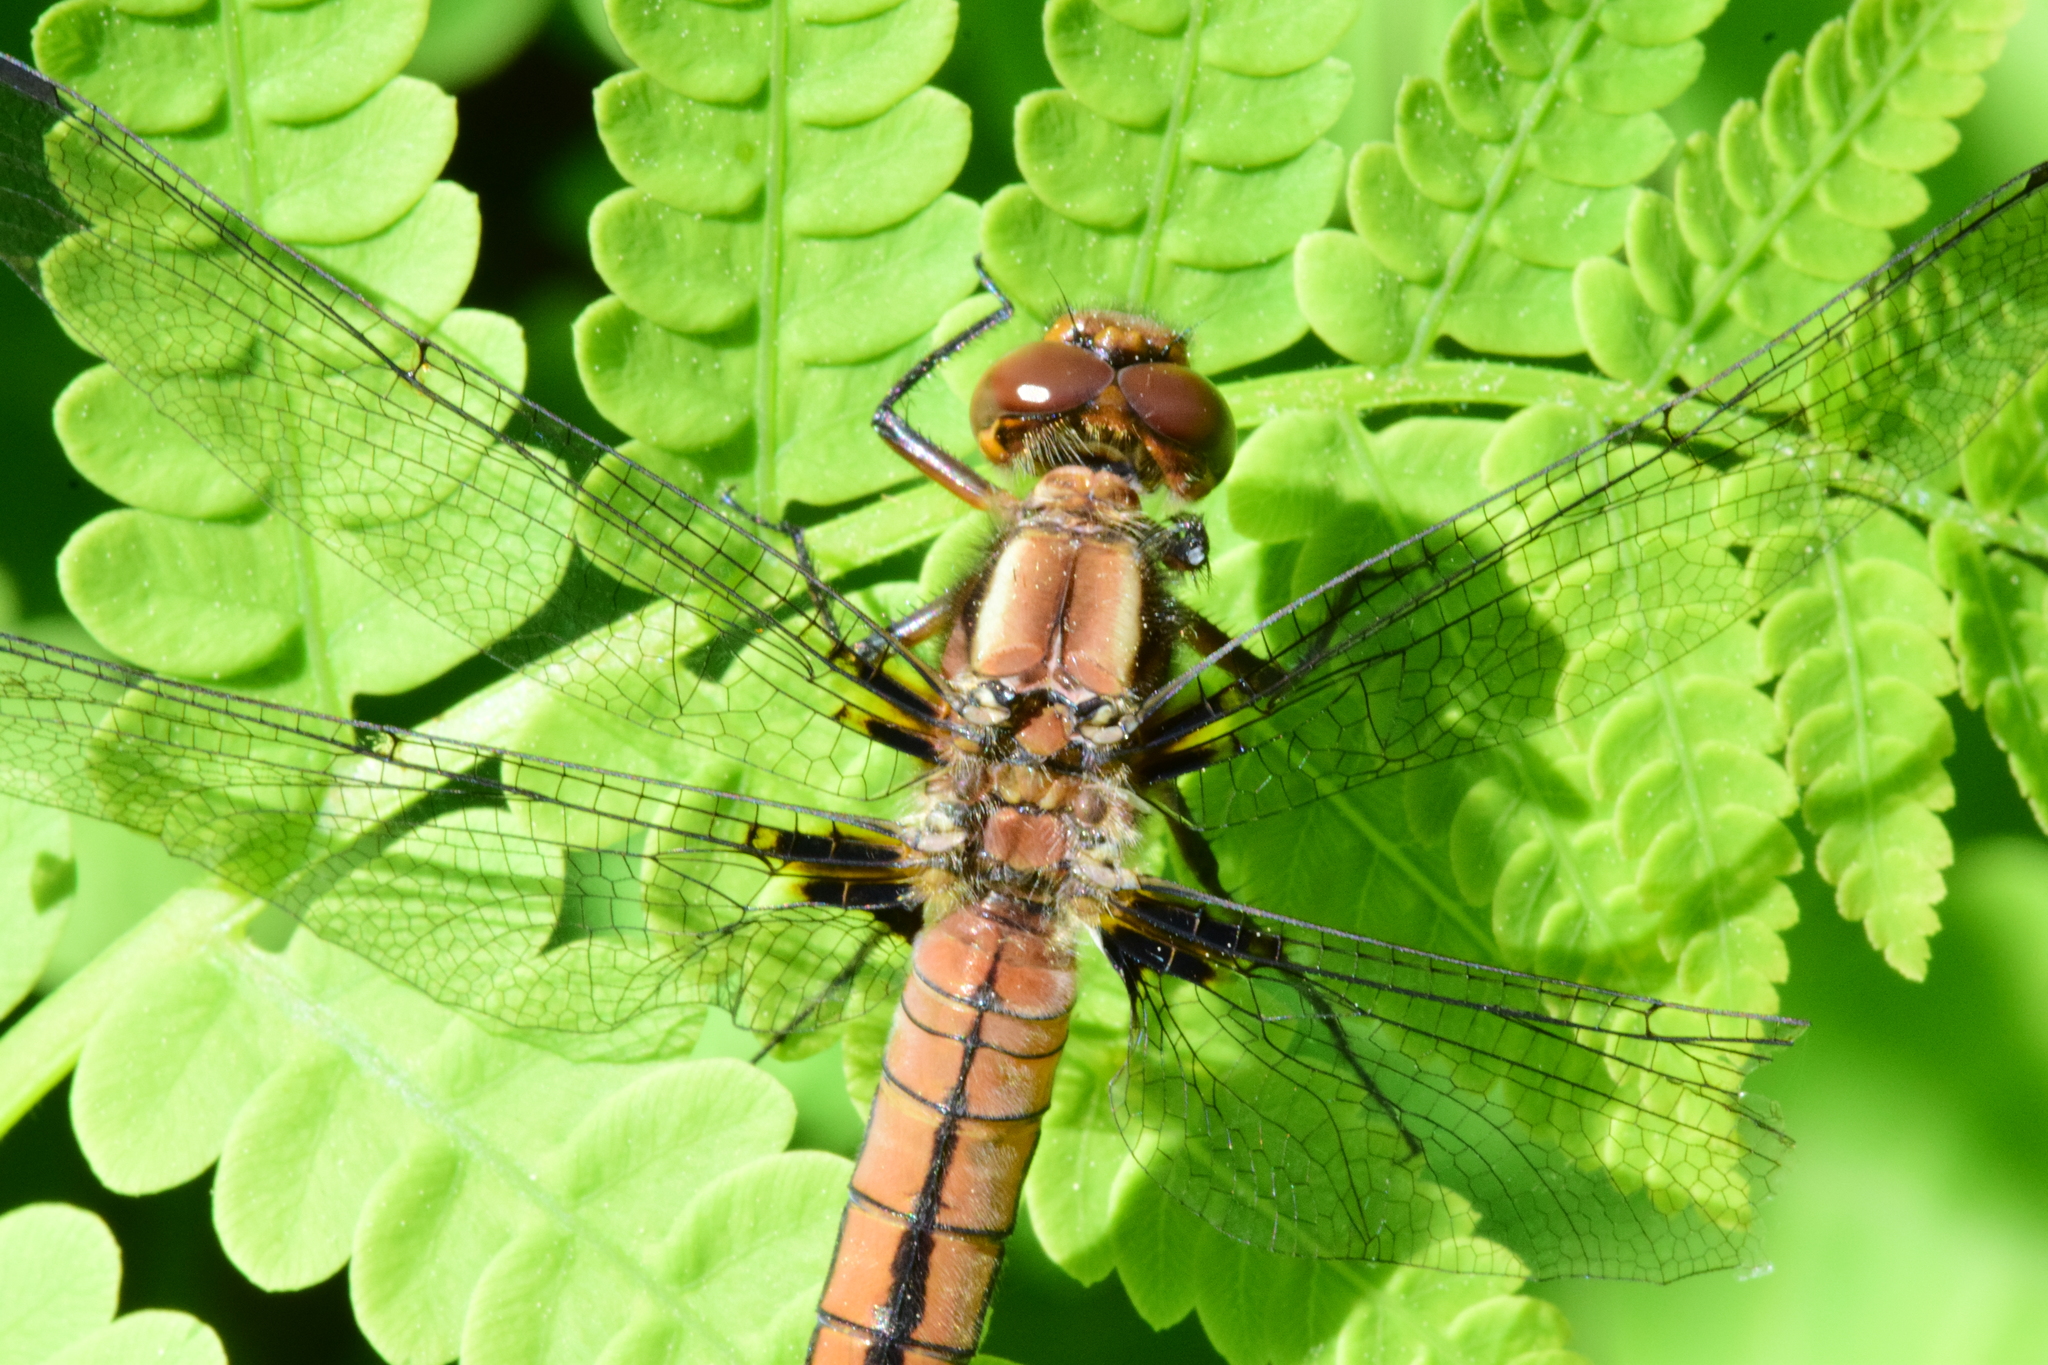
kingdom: Animalia
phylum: Arthropoda
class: Insecta
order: Odonata
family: Libellulidae
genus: Ladona
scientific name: Ladona julia
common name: Chalk-fronted corporal
